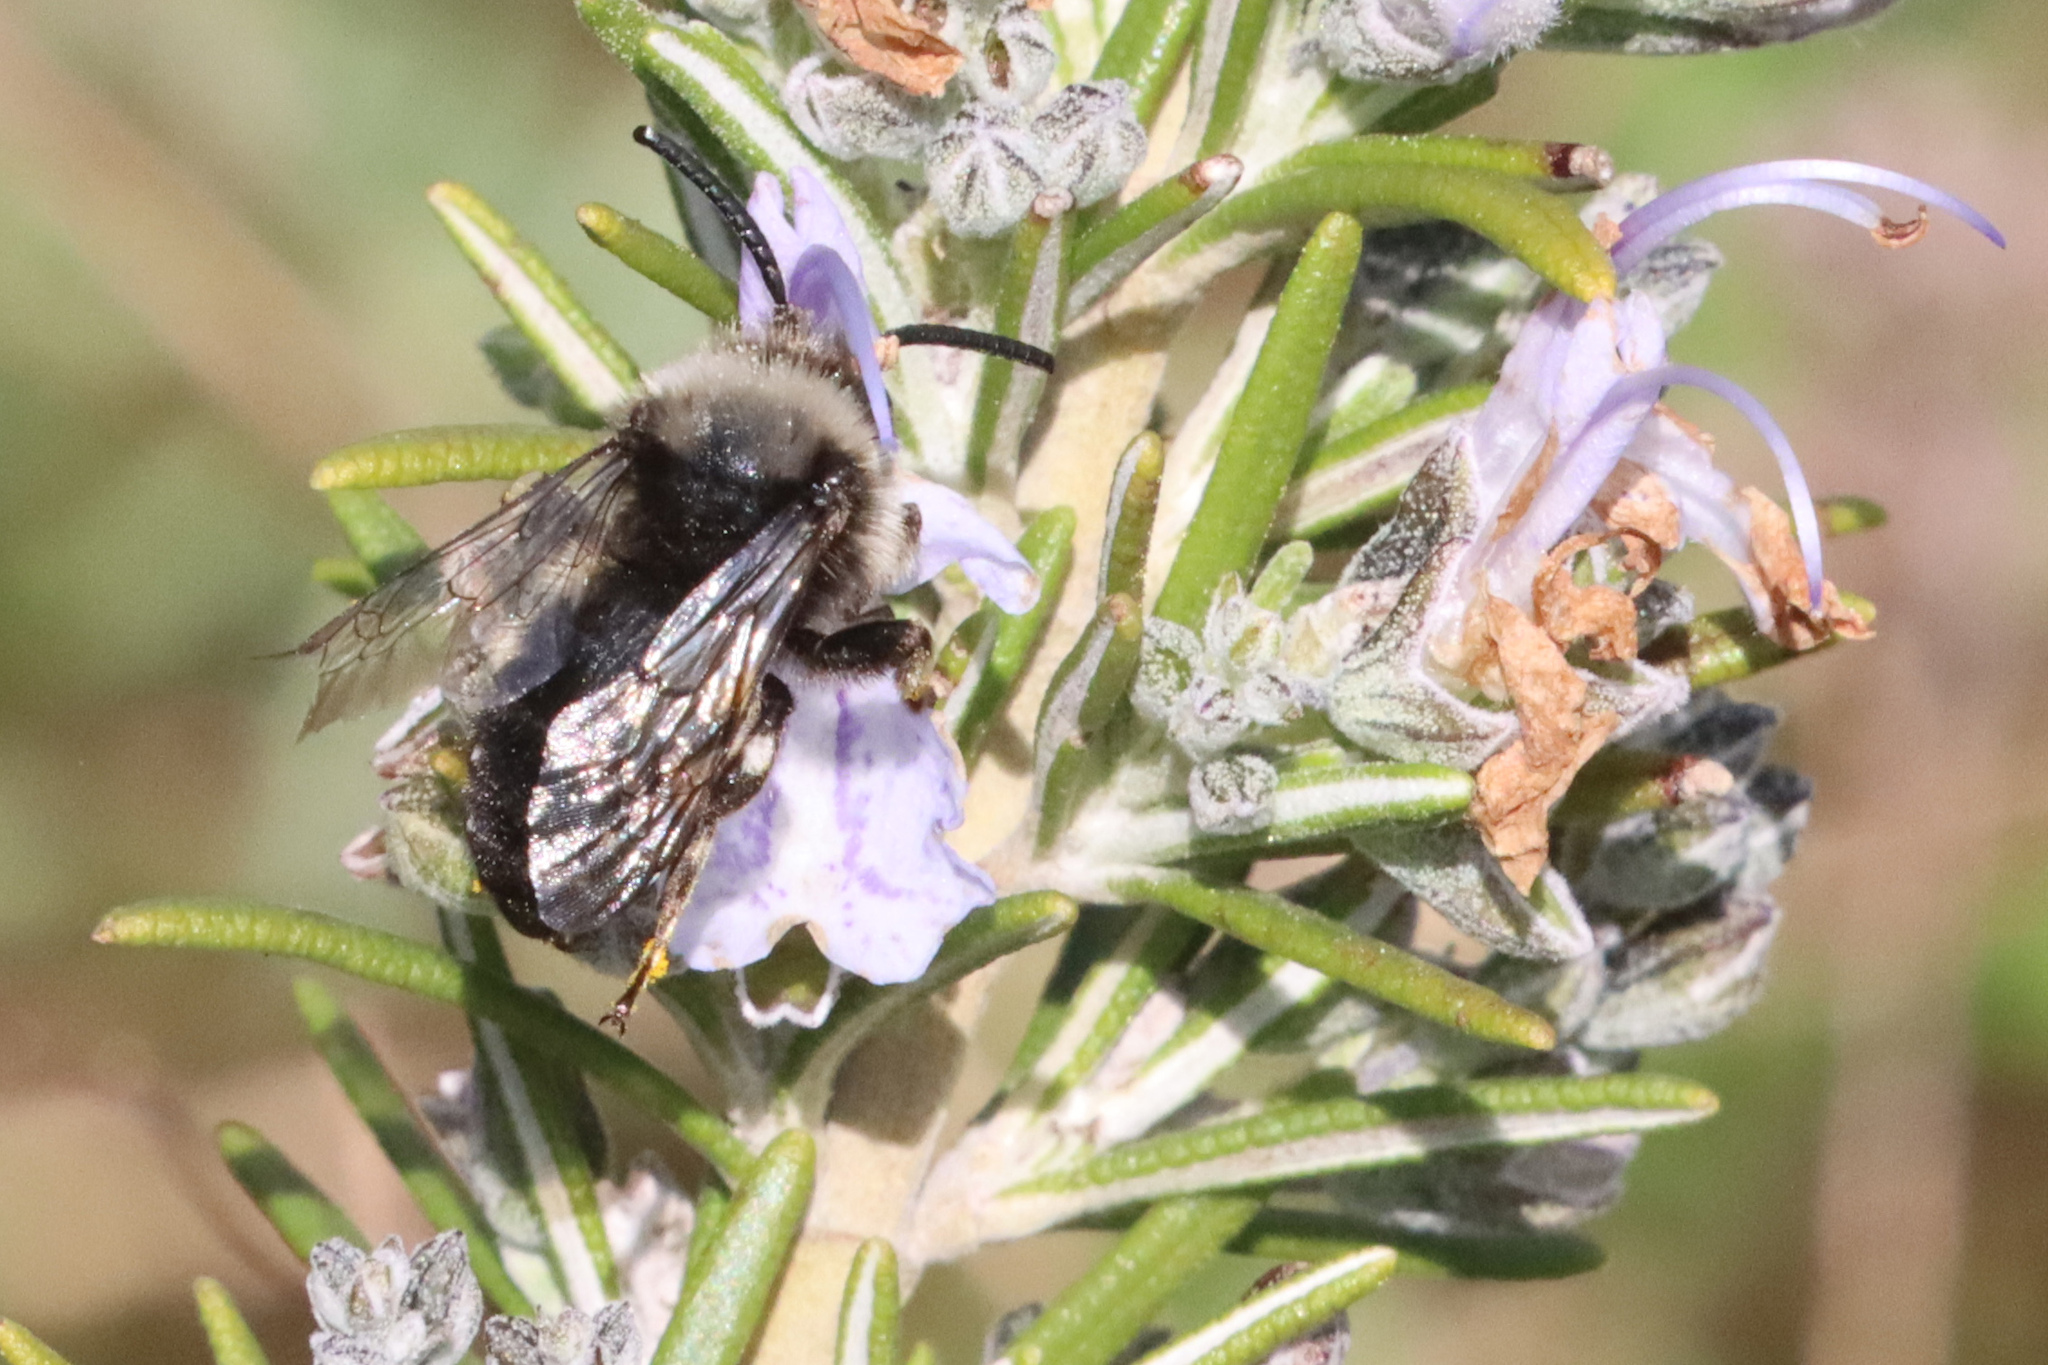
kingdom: Animalia
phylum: Arthropoda
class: Insecta
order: Hymenoptera
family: Apidae
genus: Melecta
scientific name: Melecta albifrons
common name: Common mourning bee
